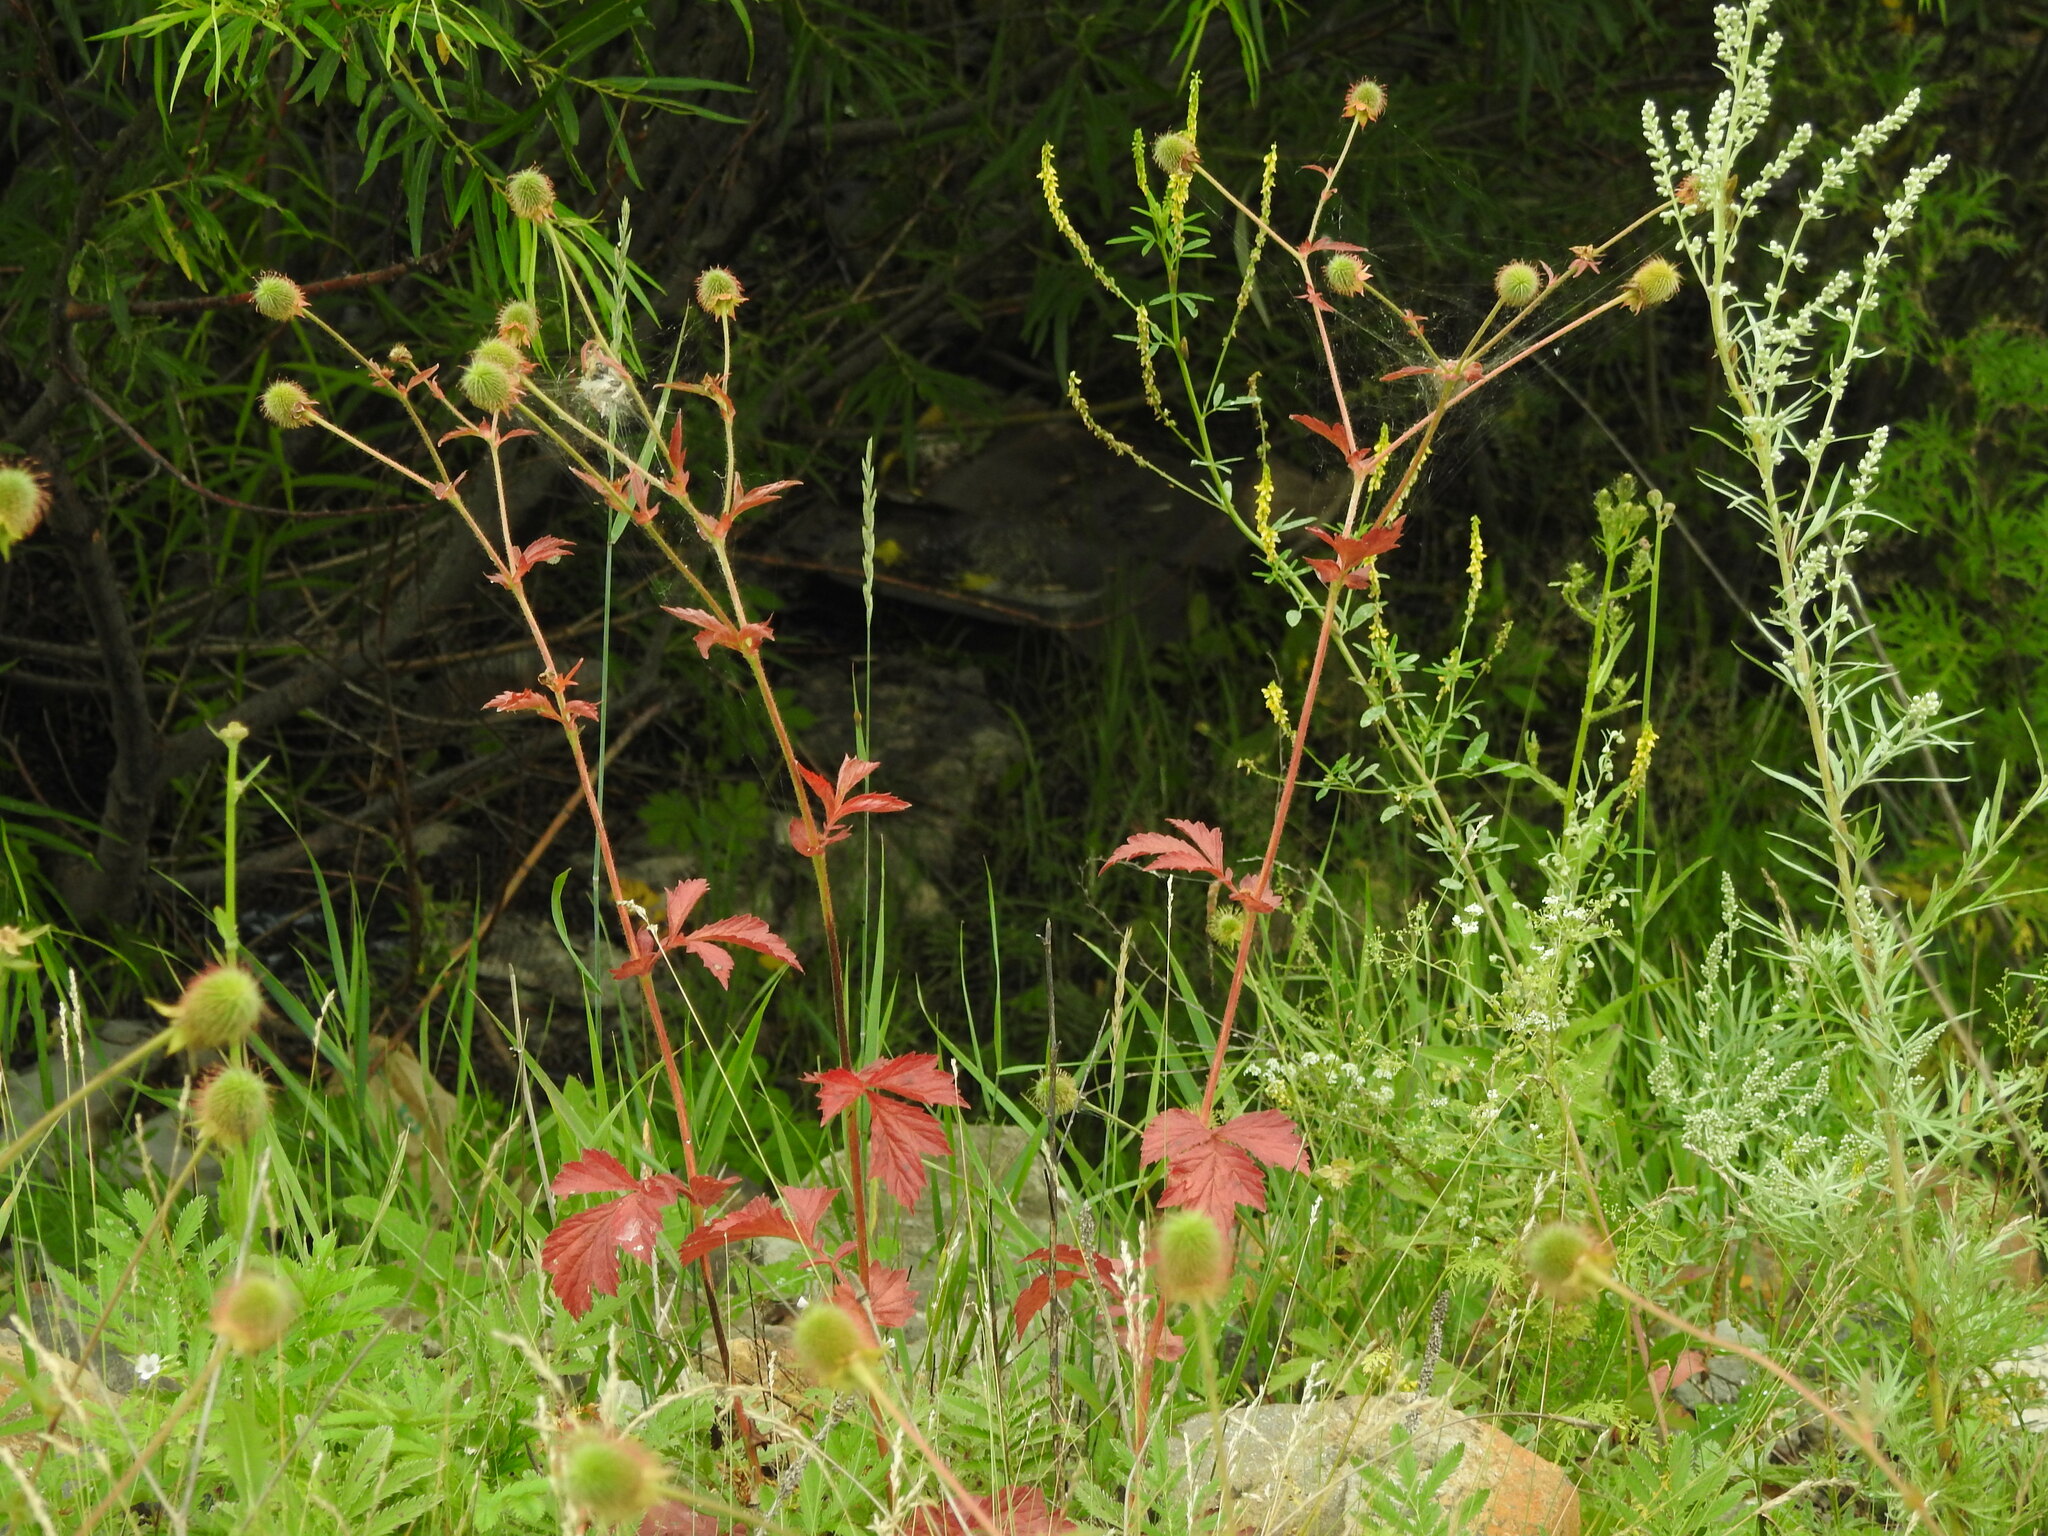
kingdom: Plantae
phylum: Tracheophyta
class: Magnoliopsida
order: Rosales
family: Rosaceae
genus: Geum
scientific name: Geum aleppicum
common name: Yellow avens
